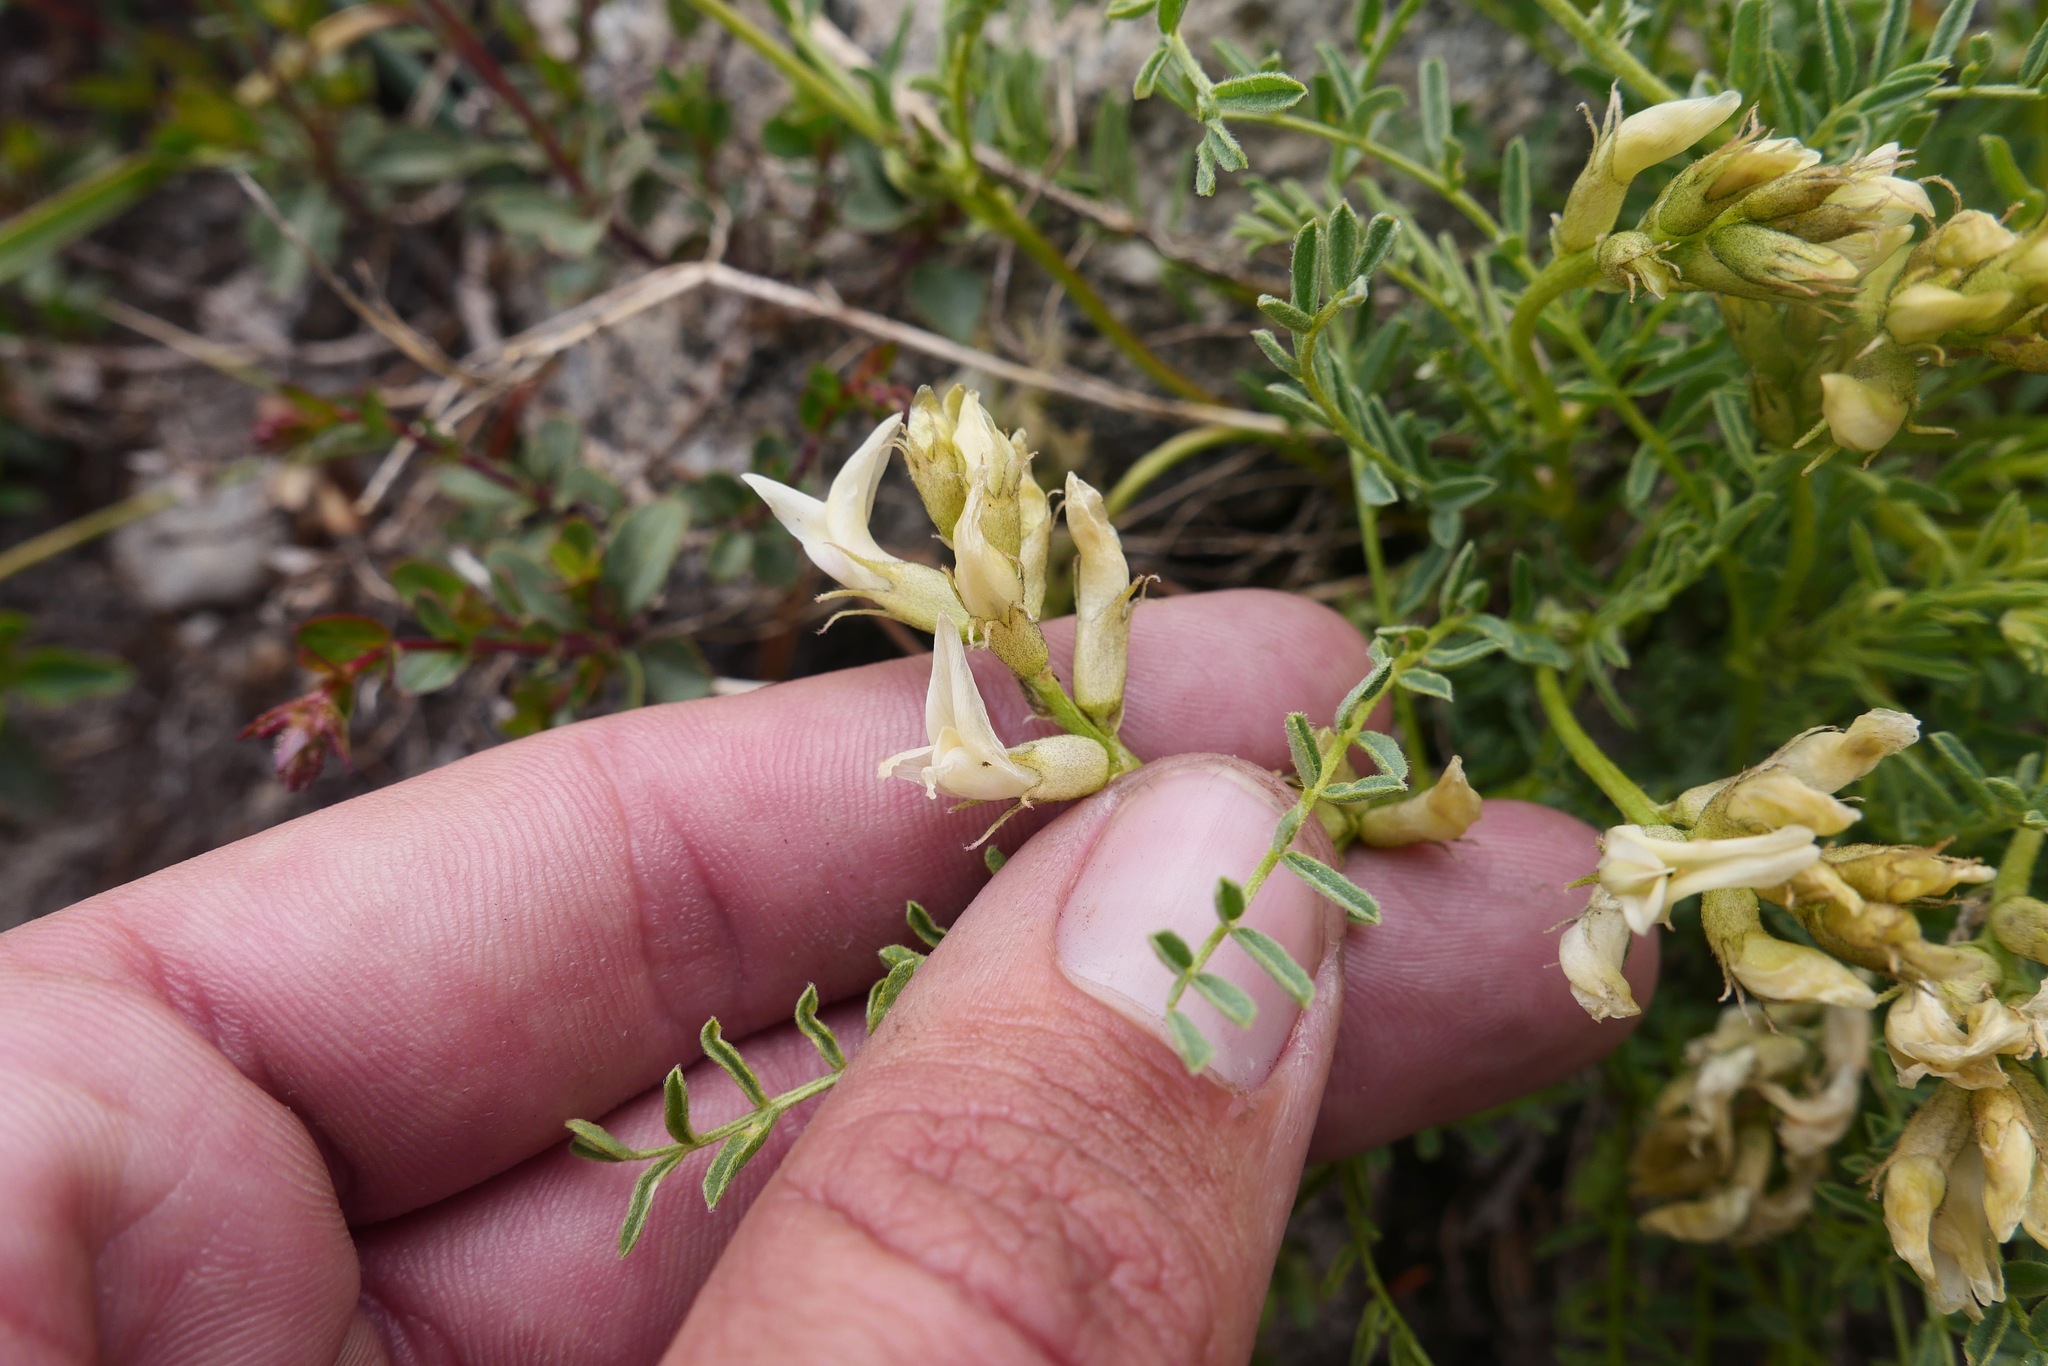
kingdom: Plantae
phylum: Tracheophyta
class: Magnoliopsida
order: Fabales
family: Fabaceae
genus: Astragalus
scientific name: Astragalus bolanderi
